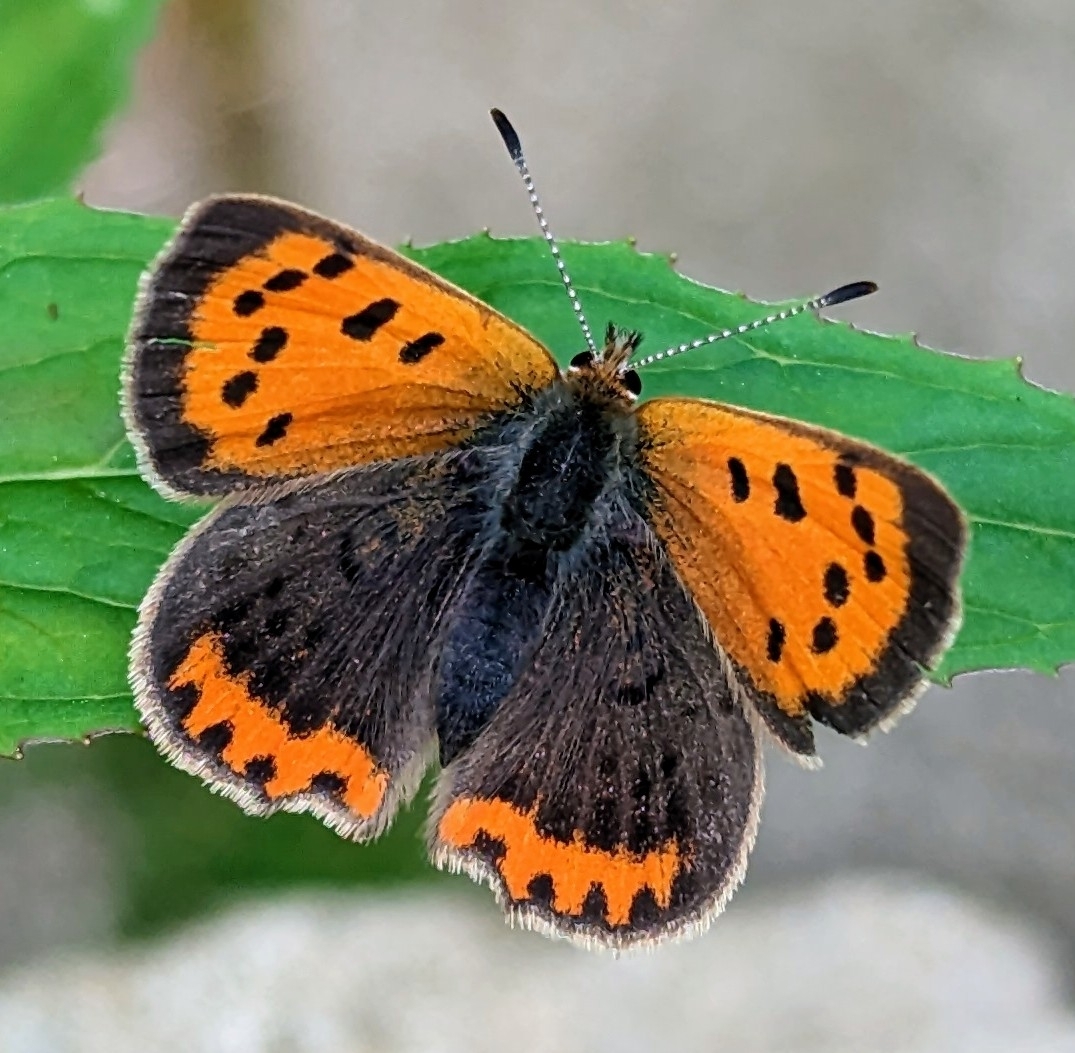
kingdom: Animalia
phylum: Arthropoda
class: Insecta
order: Lepidoptera
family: Lycaenidae
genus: Lycaena
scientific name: Lycaena phlaeas
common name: Small copper
